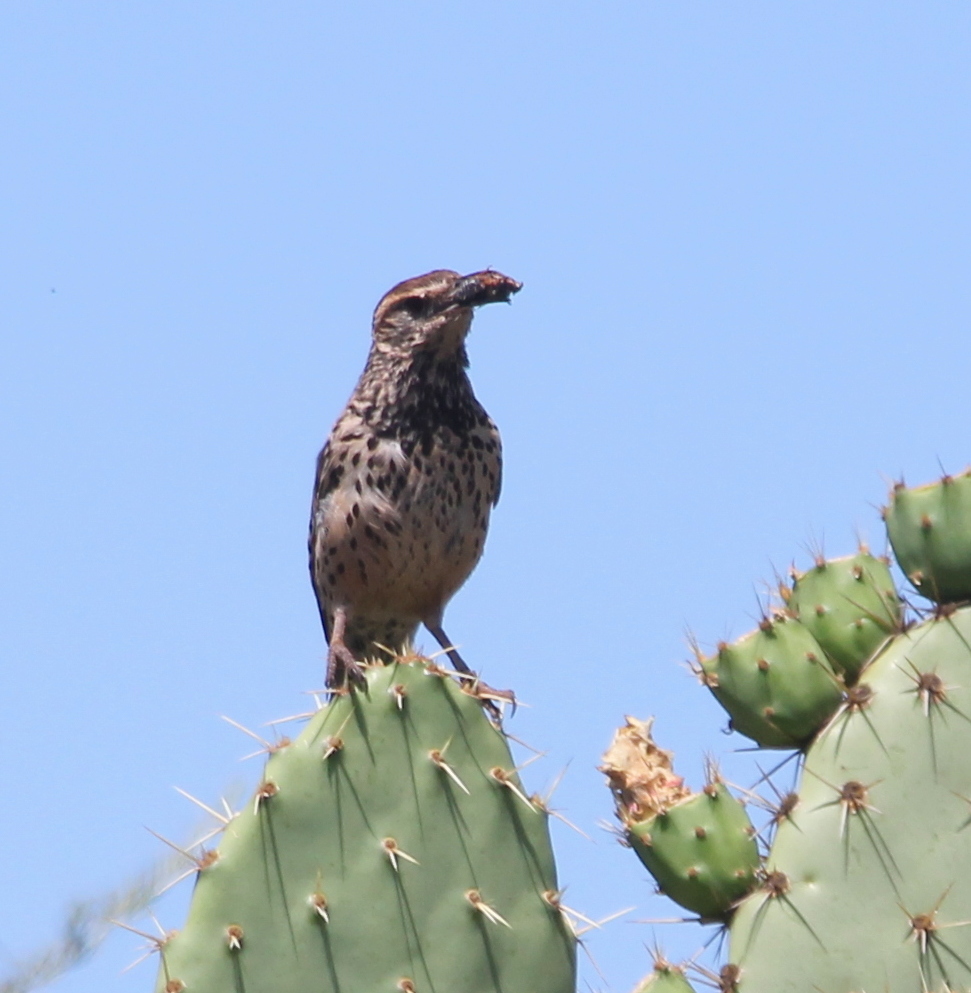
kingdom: Animalia
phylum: Chordata
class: Aves
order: Passeriformes
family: Troglodytidae
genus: Campylorhynchus
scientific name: Campylorhynchus brunneicapillus
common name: Cactus wren
